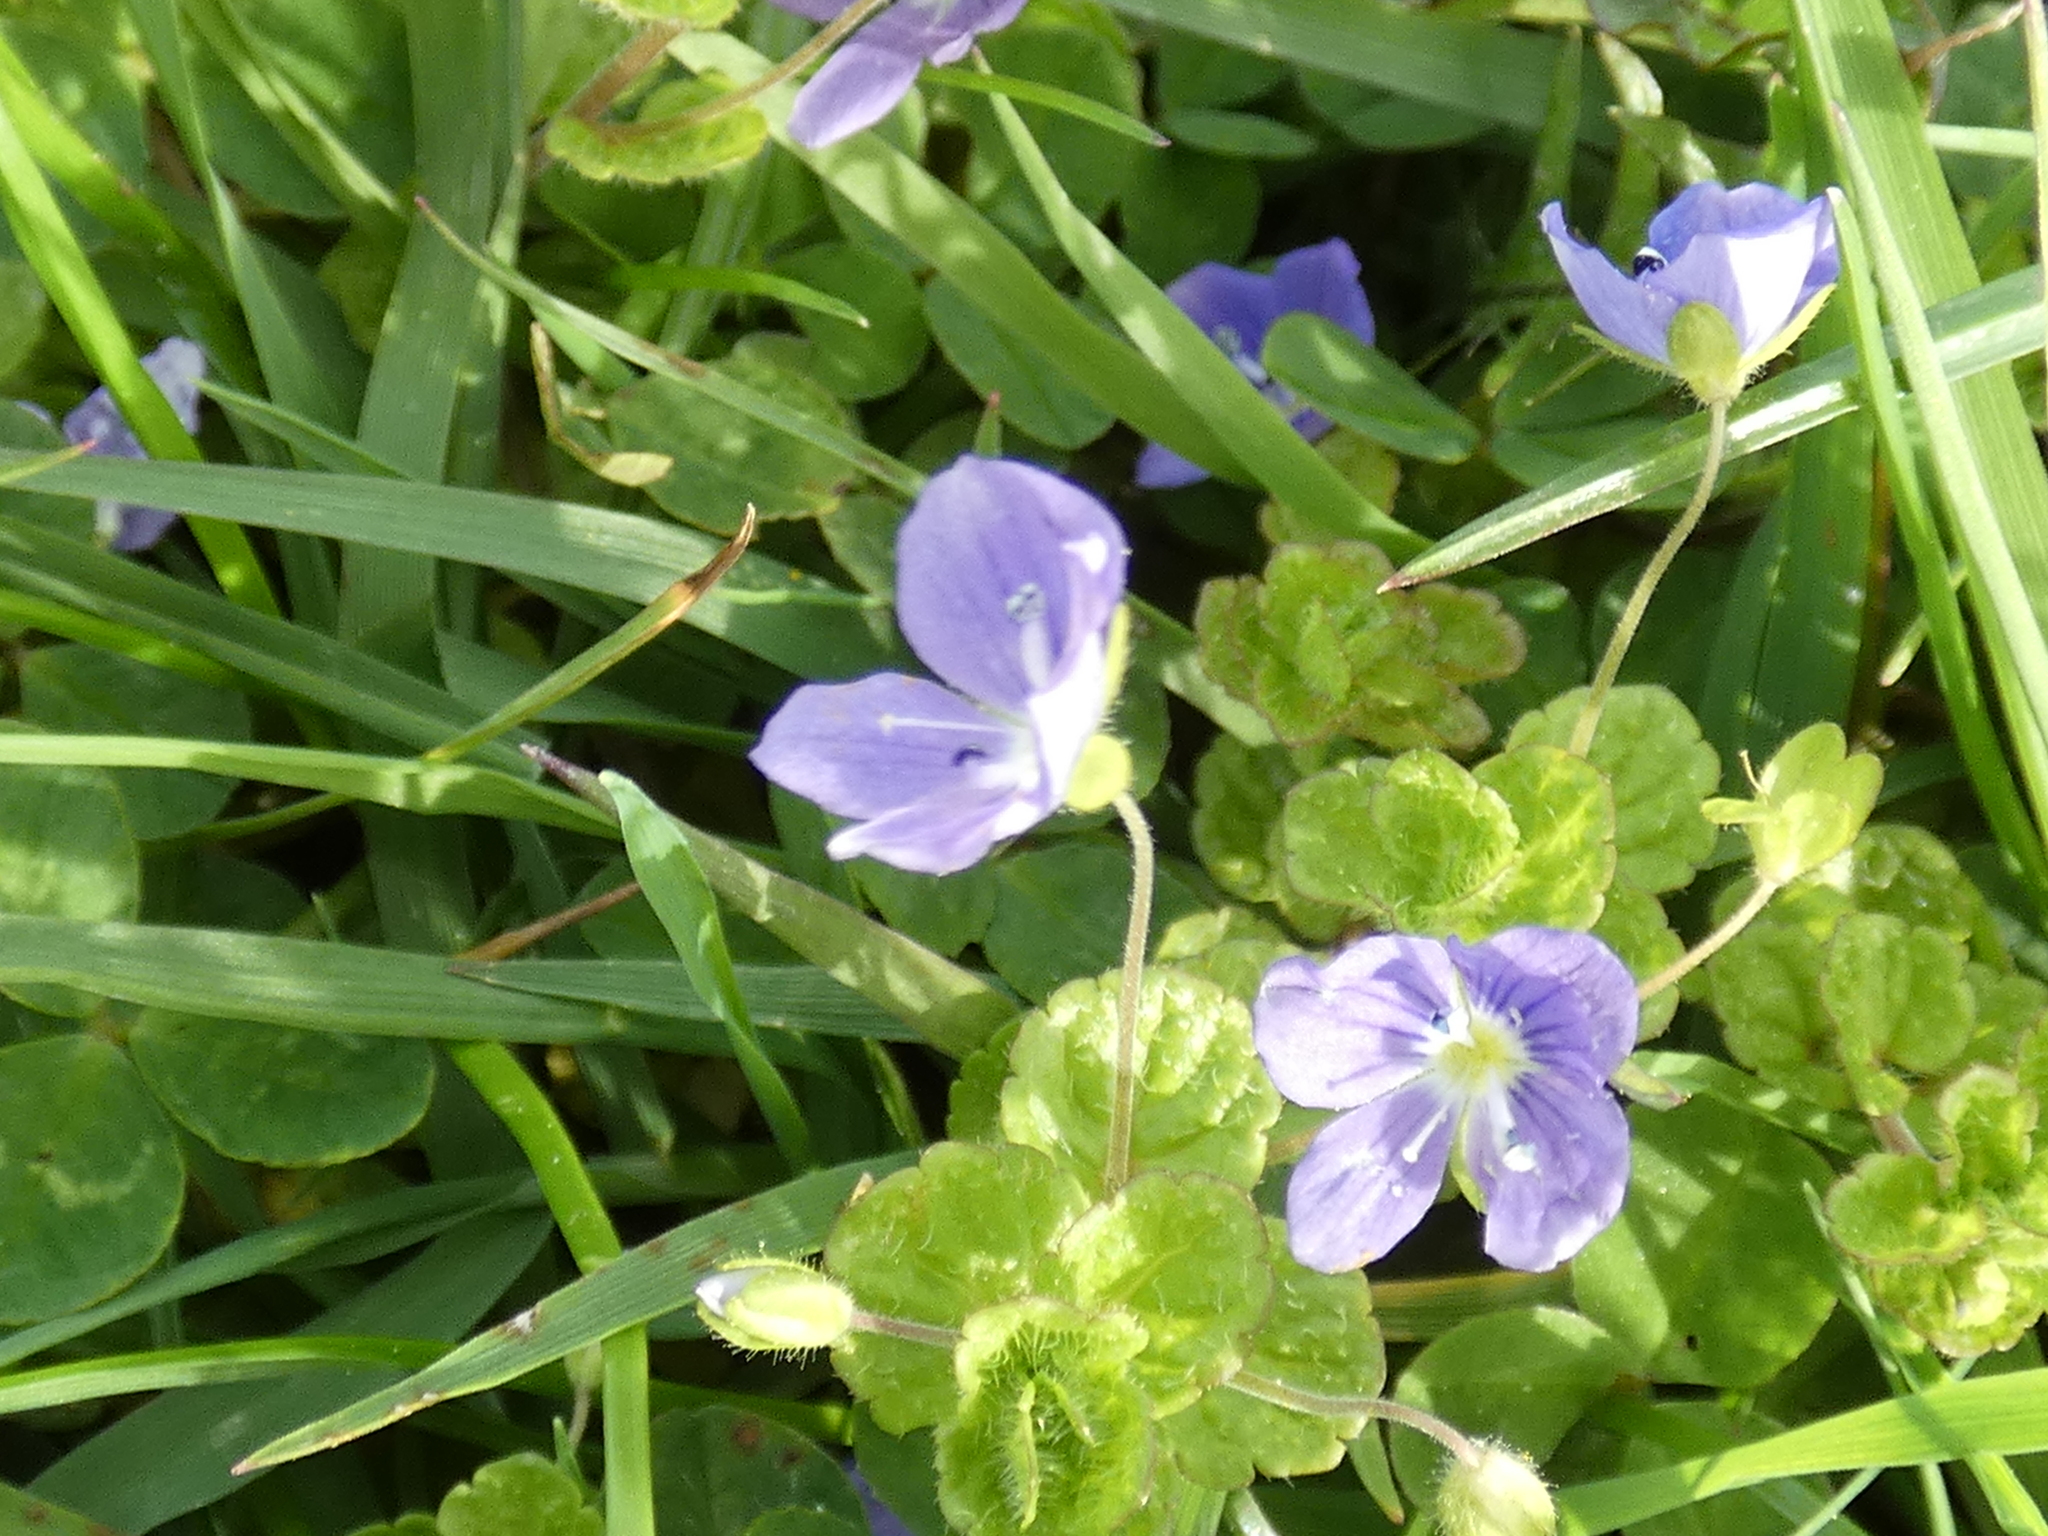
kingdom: Plantae
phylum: Tracheophyta
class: Magnoliopsida
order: Lamiales
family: Plantaginaceae
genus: Veronica
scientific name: Veronica filiformis
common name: Slender speedwell
